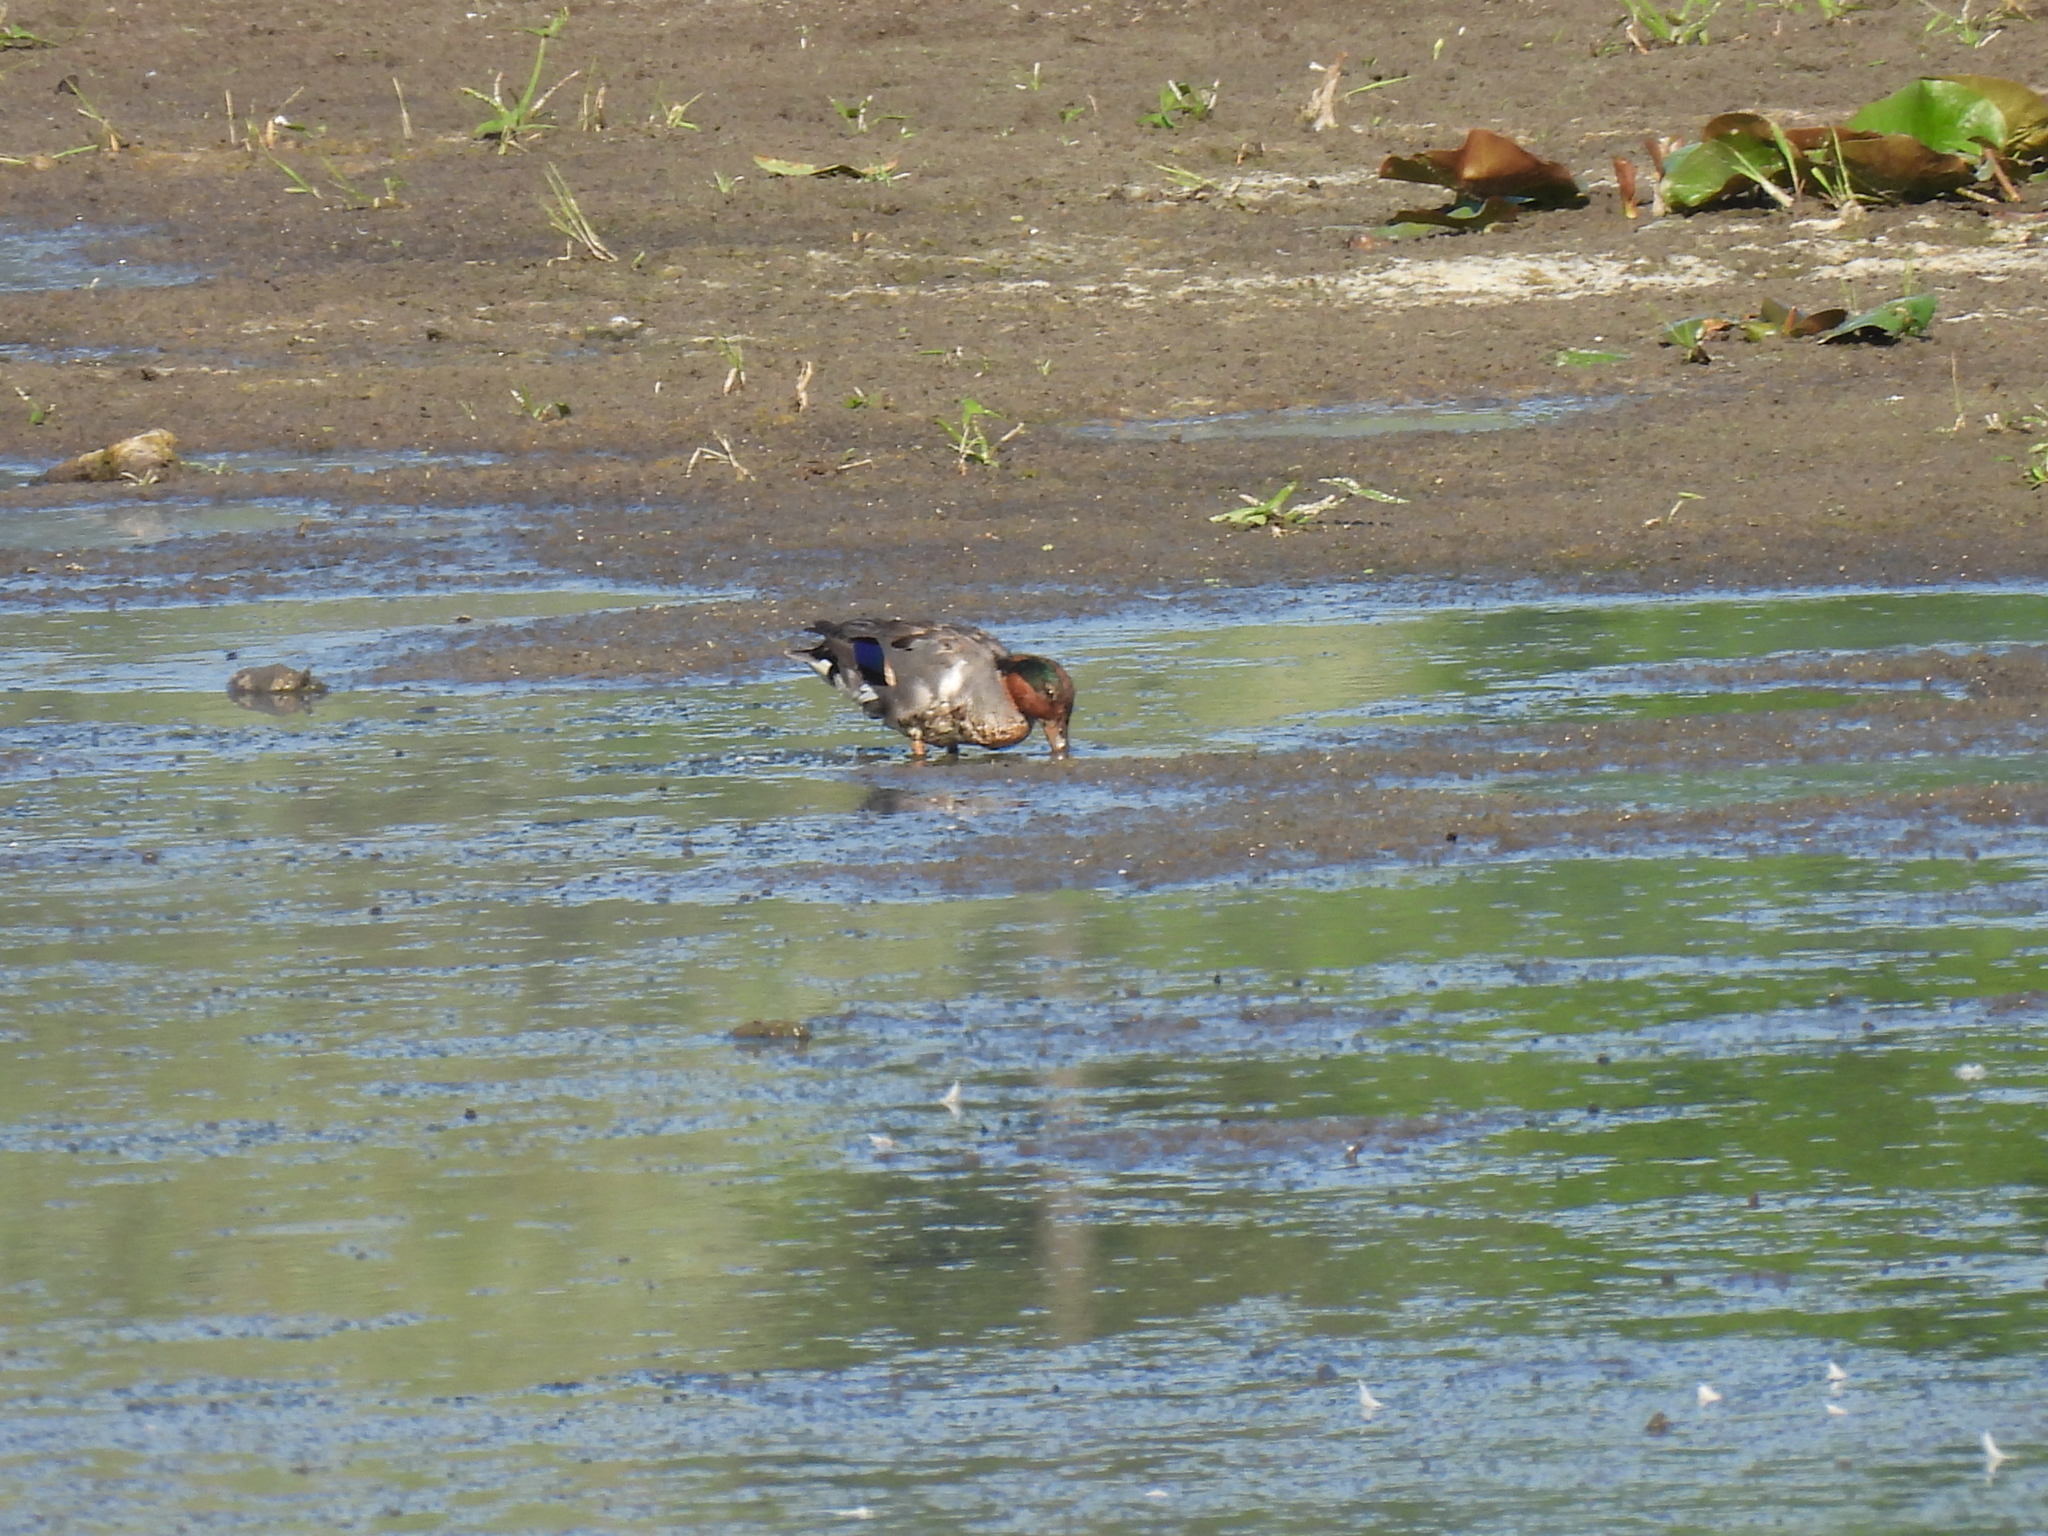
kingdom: Animalia
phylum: Chordata
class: Aves
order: Anseriformes
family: Anatidae
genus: Anas
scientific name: Anas crecca
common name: Eurasian teal
